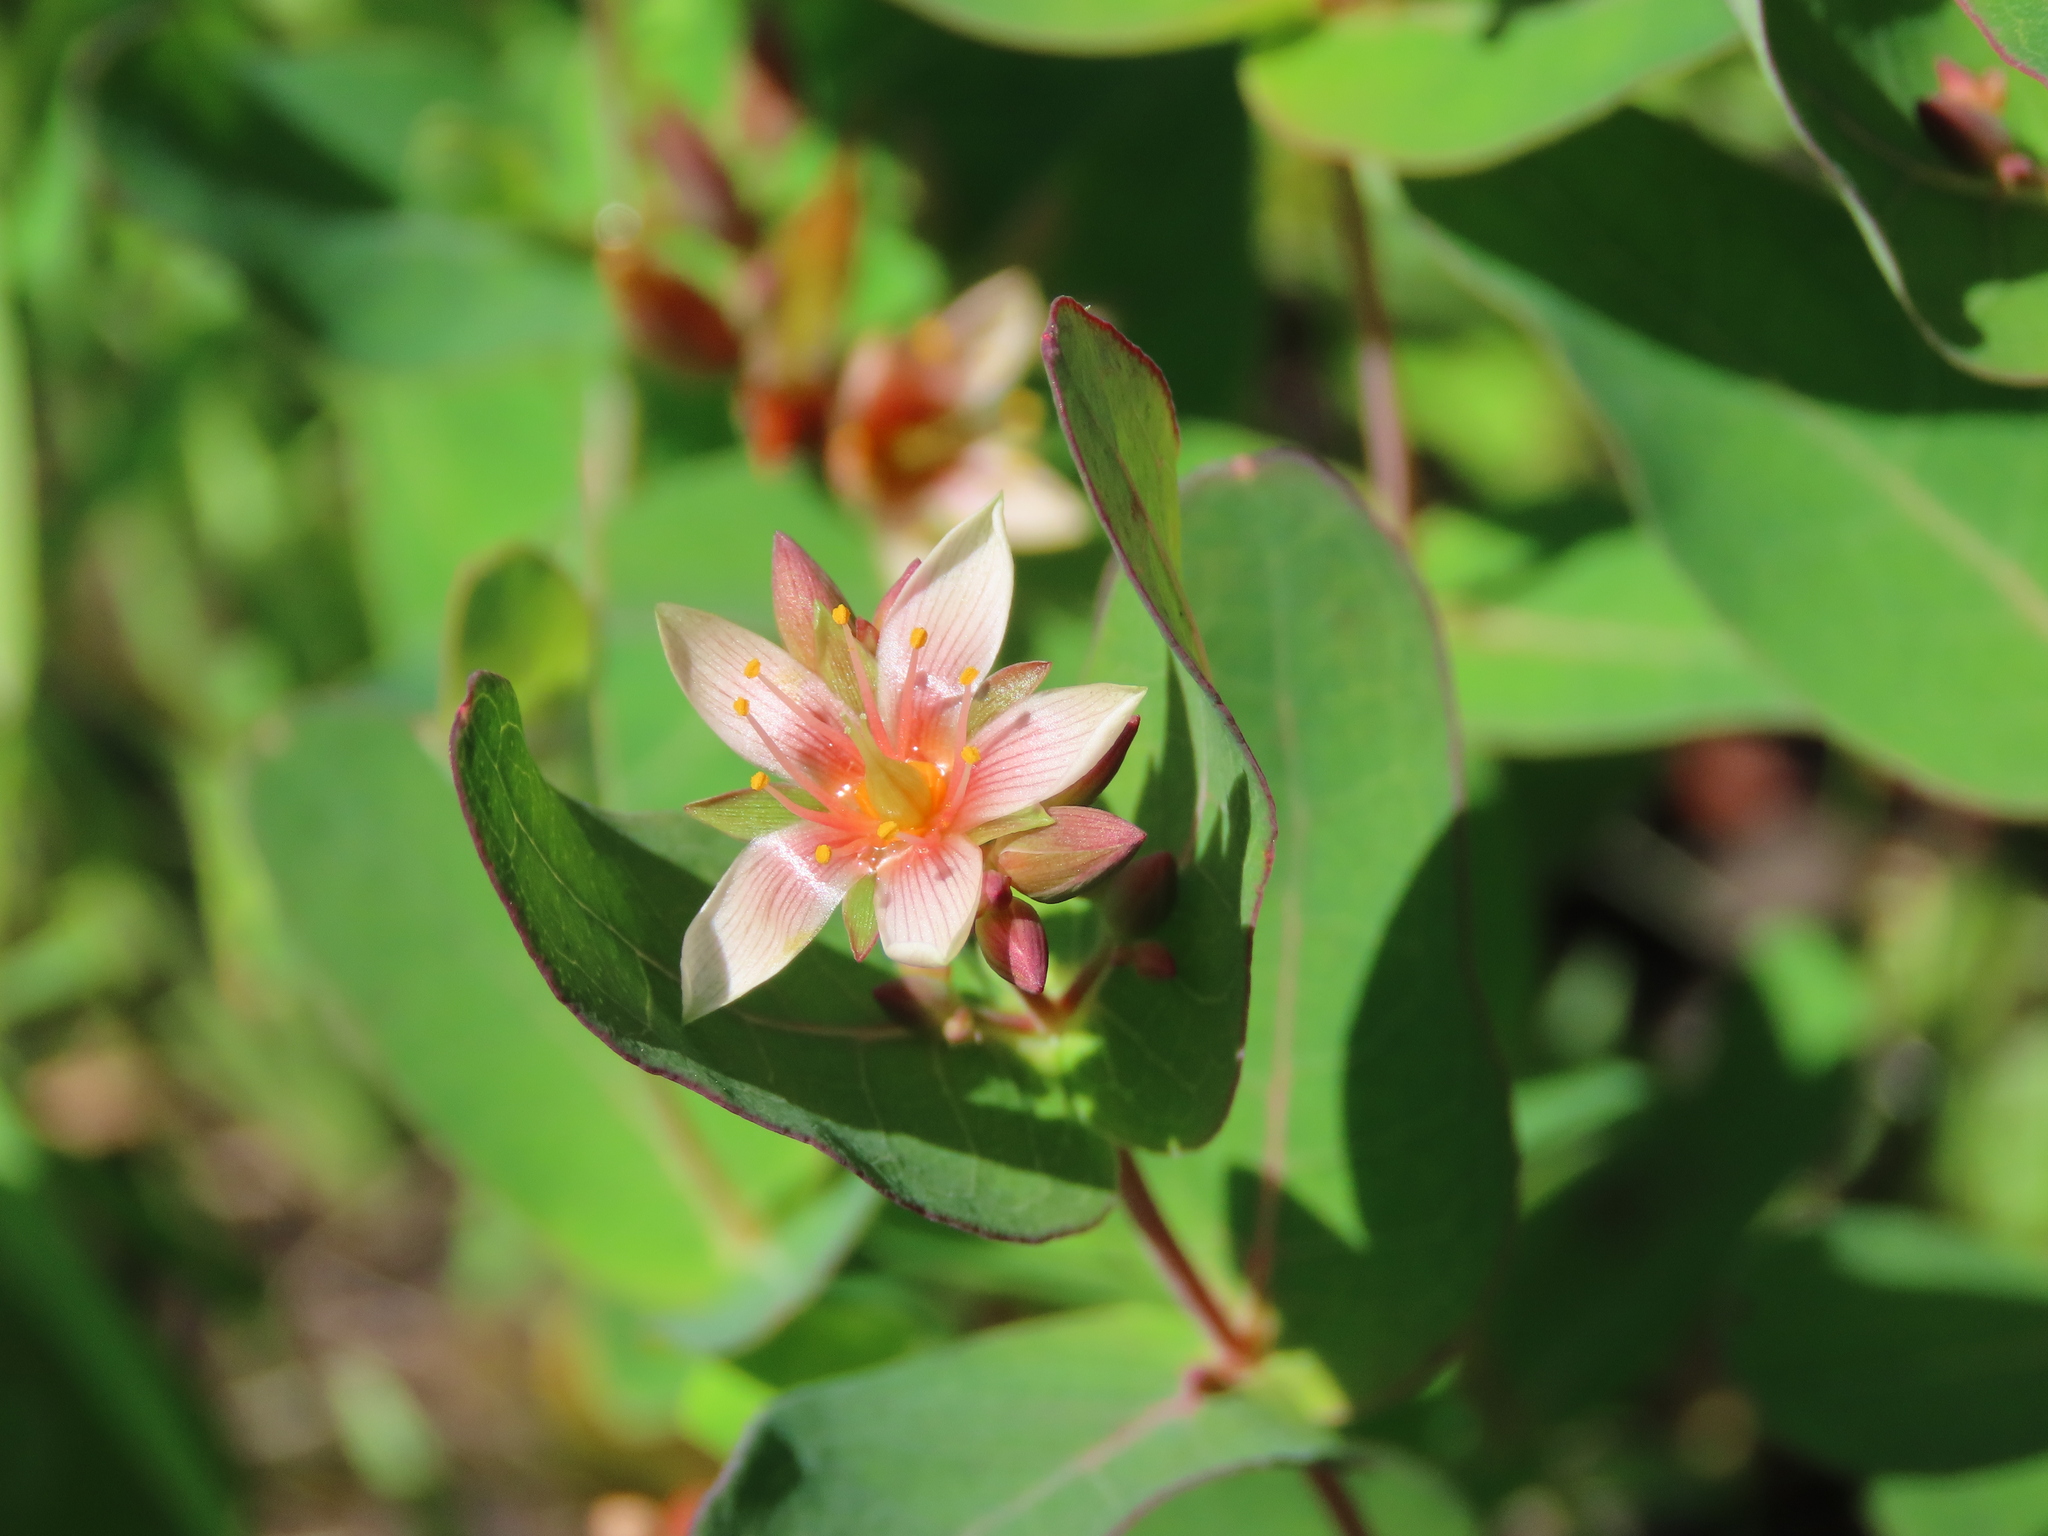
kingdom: Plantae
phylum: Tracheophyta
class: Magnoliopsida
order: Malpighiales
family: Hypericaceae
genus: Triadenum
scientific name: Triadenum virginicum
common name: Marsh st. john's-wort
